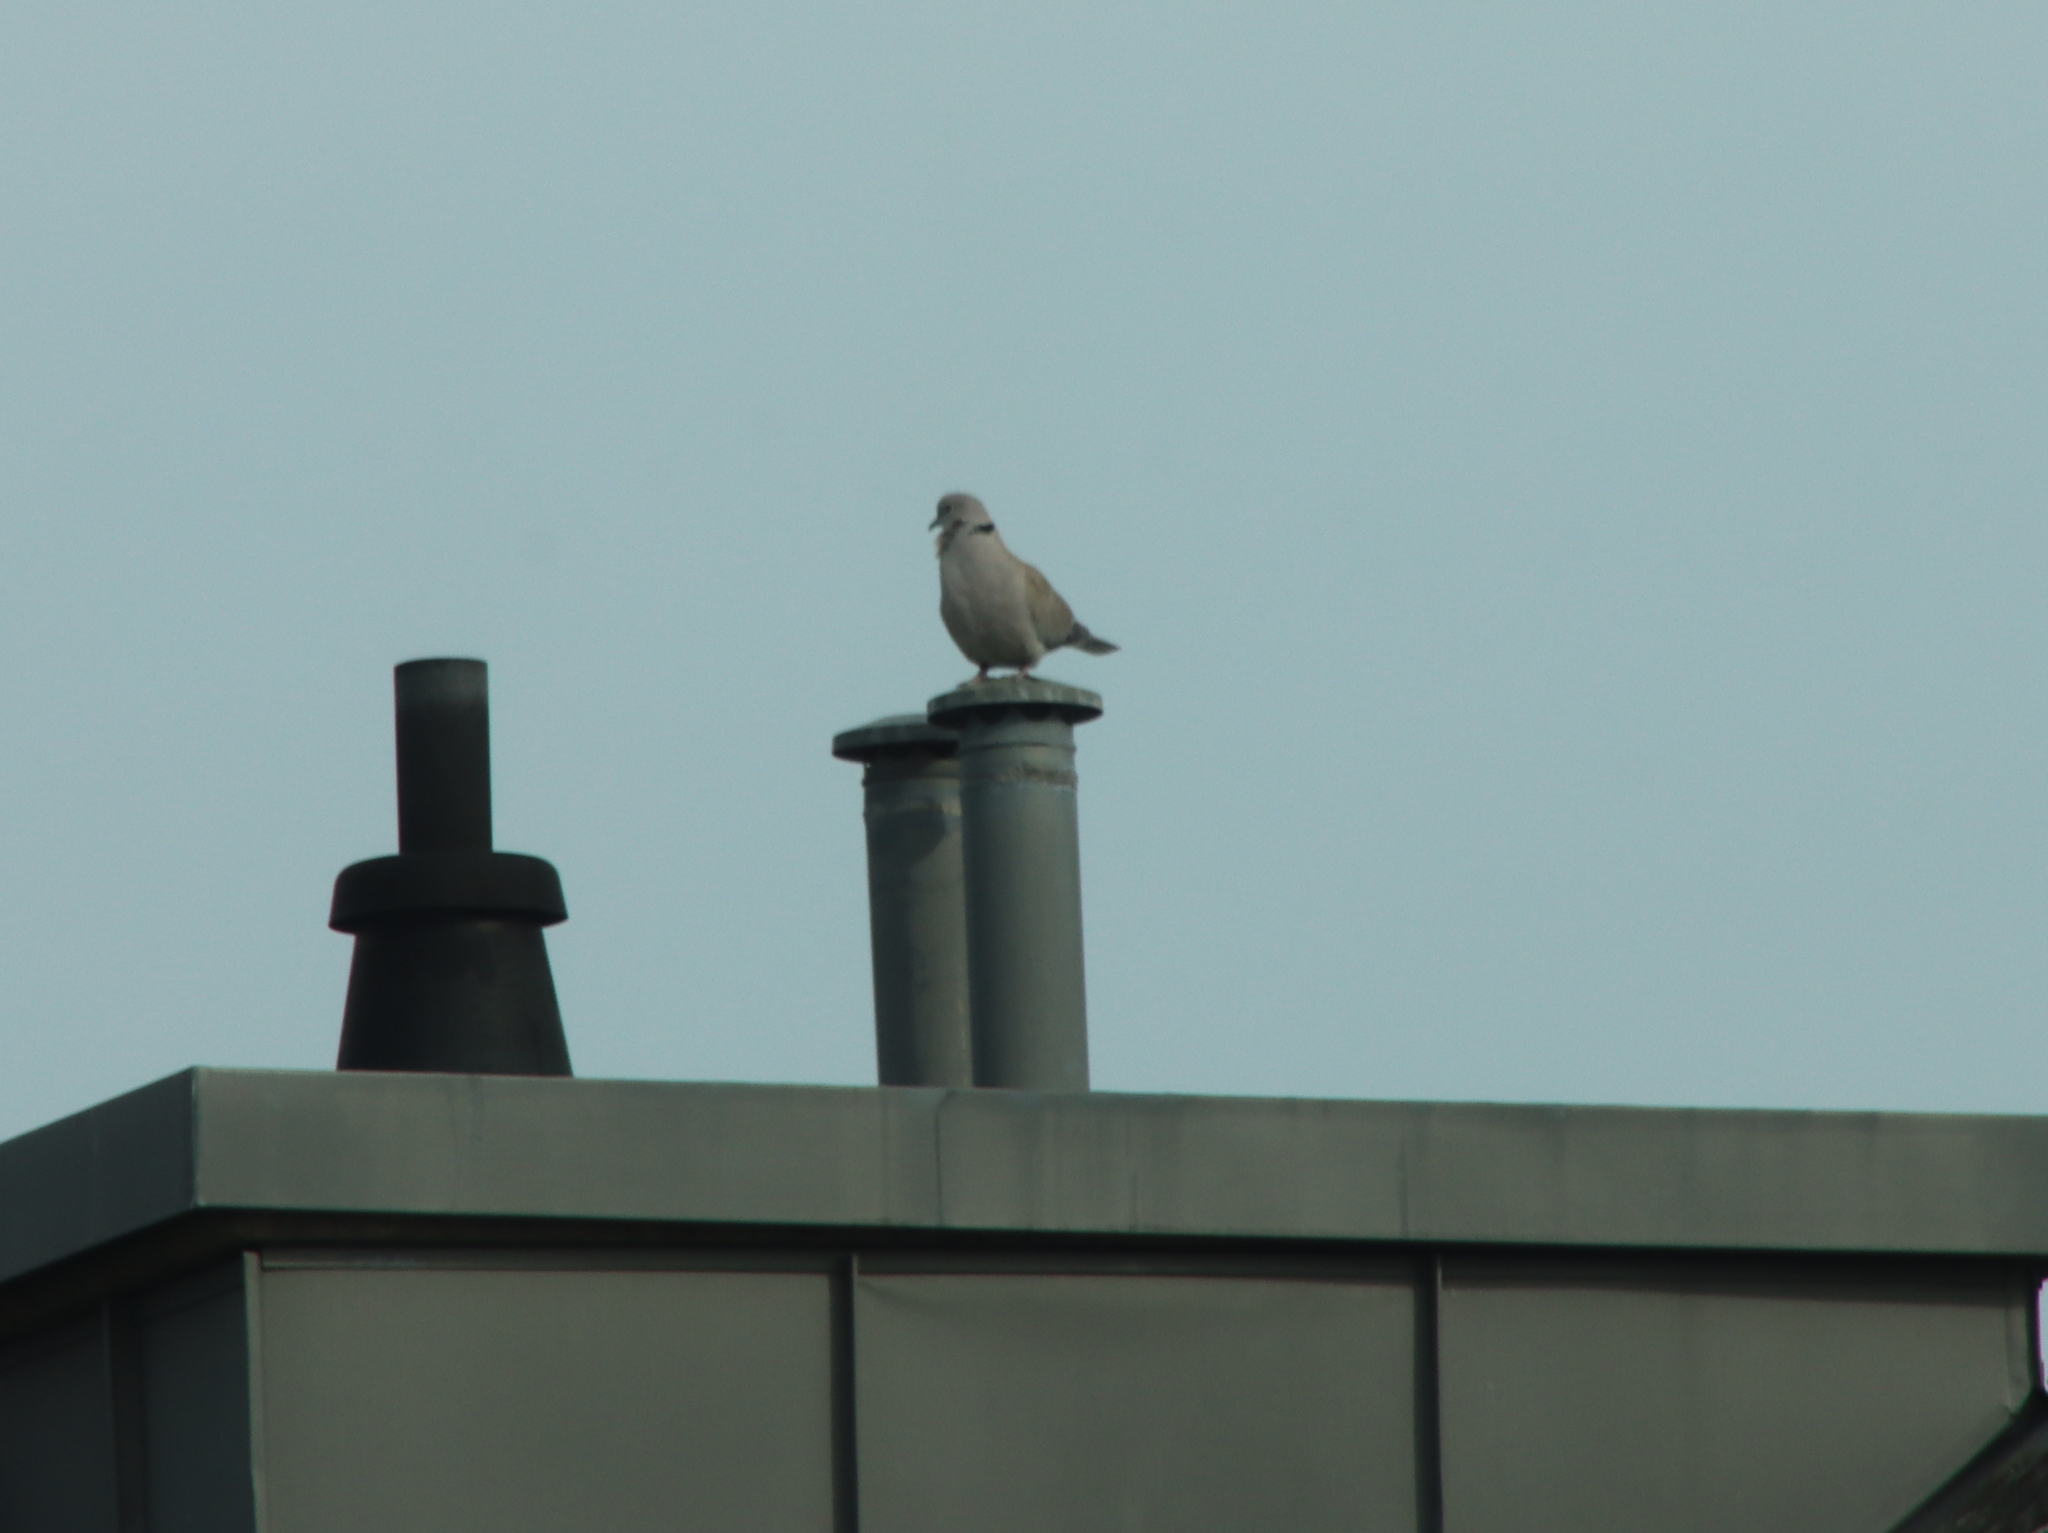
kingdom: Animalia
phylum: Chordata
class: Aves
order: Columbiformes
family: Columbidae
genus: Streptopelia
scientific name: Streptopelia decaocto
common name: Eurasian collared dove
